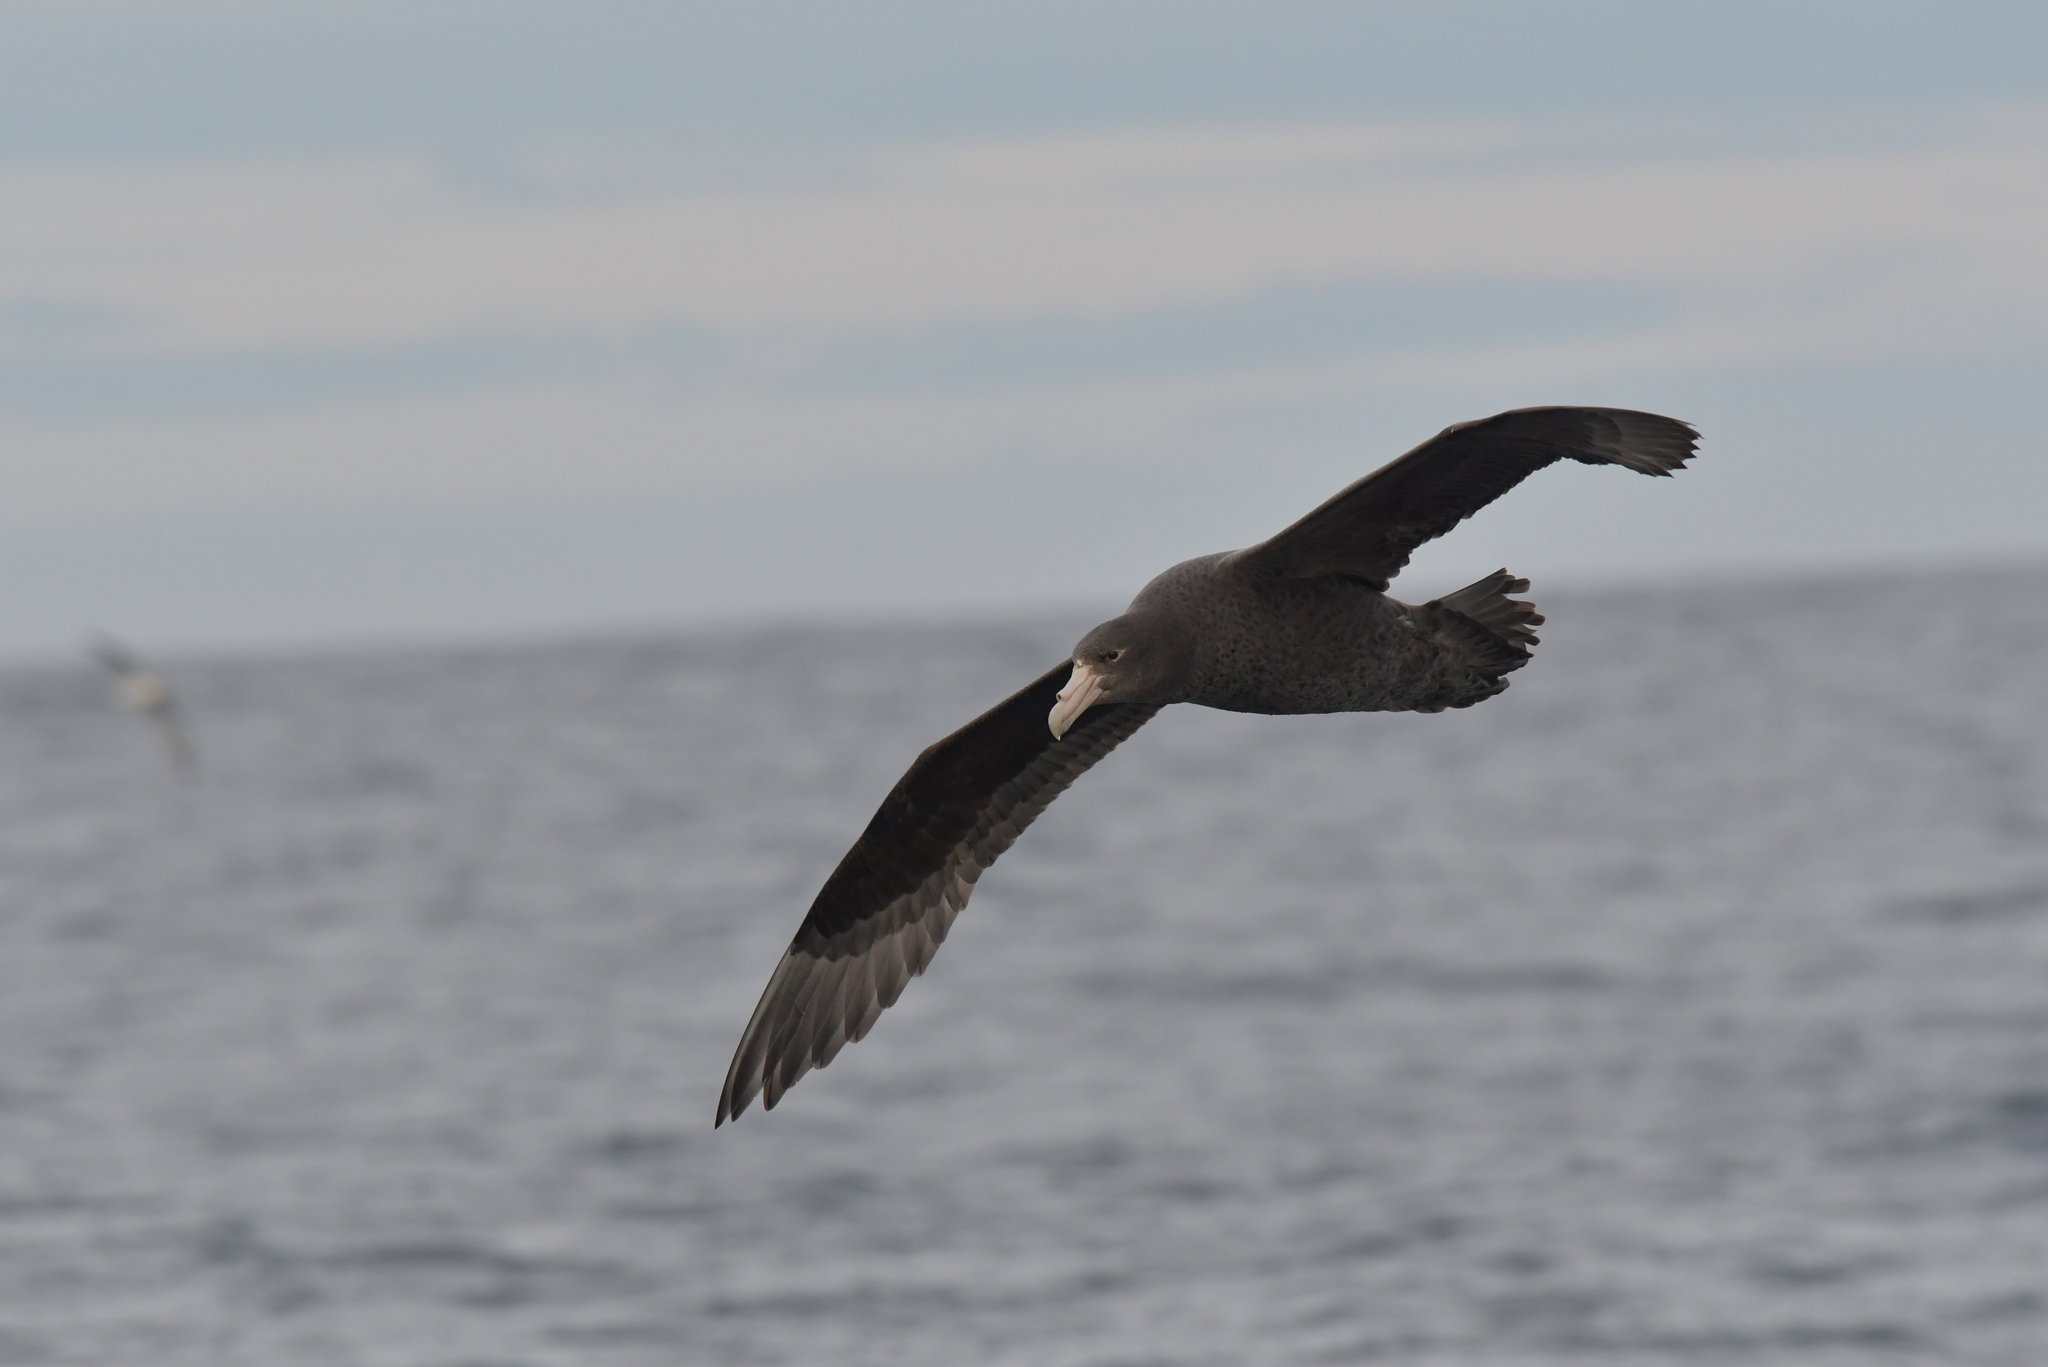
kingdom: Animalia
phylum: Chordata
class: Aves
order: Procellariiformes
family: Procellariidae
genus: Macronectes
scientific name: Macronectes giganteus
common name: Southern giant petrel
